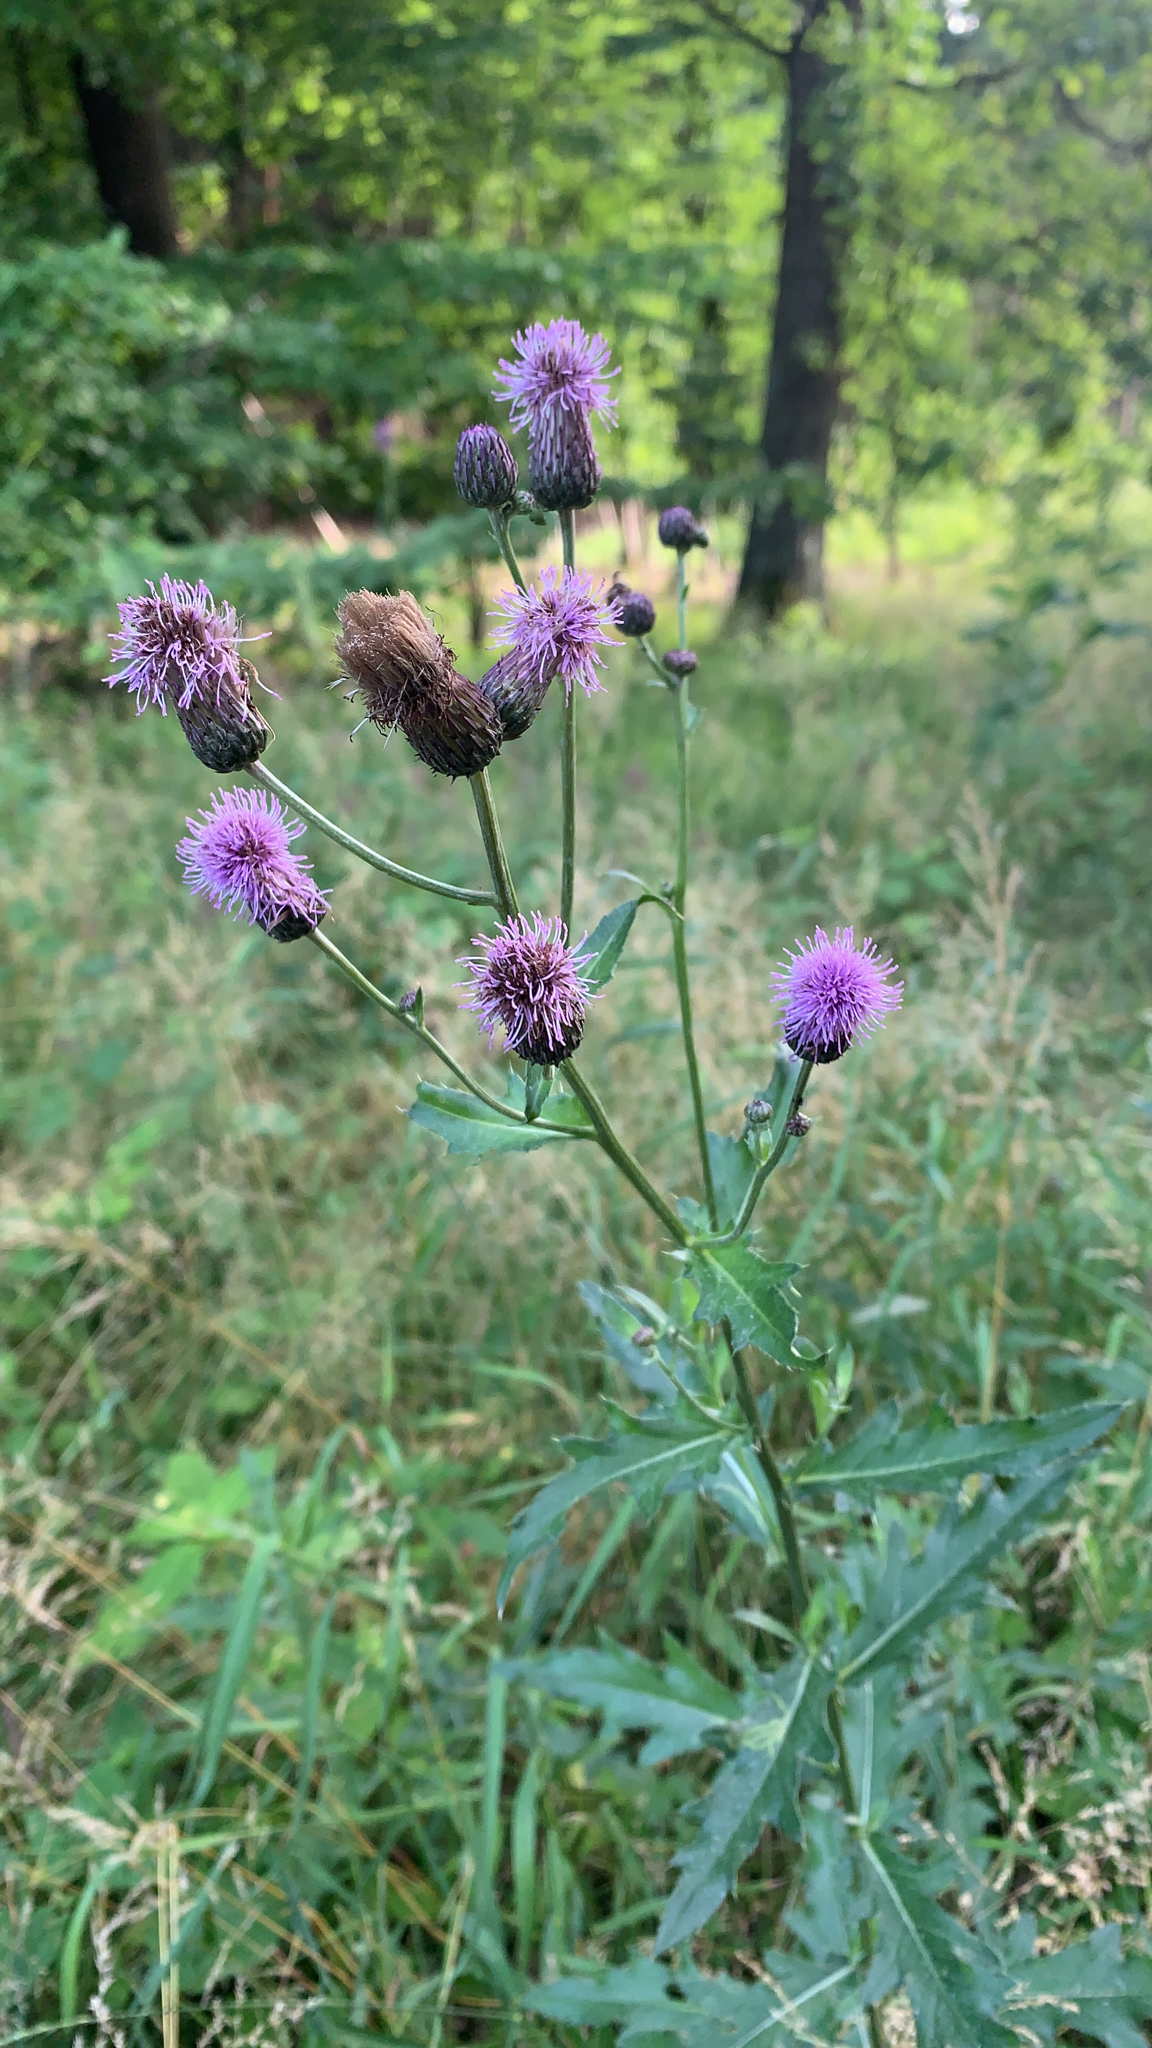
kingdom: Plantae
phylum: Tracheophyta
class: Magnoliopsida
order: Asterales
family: Asteraceae
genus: Cirsium
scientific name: Cirsium arvense
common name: Creeping thistle
